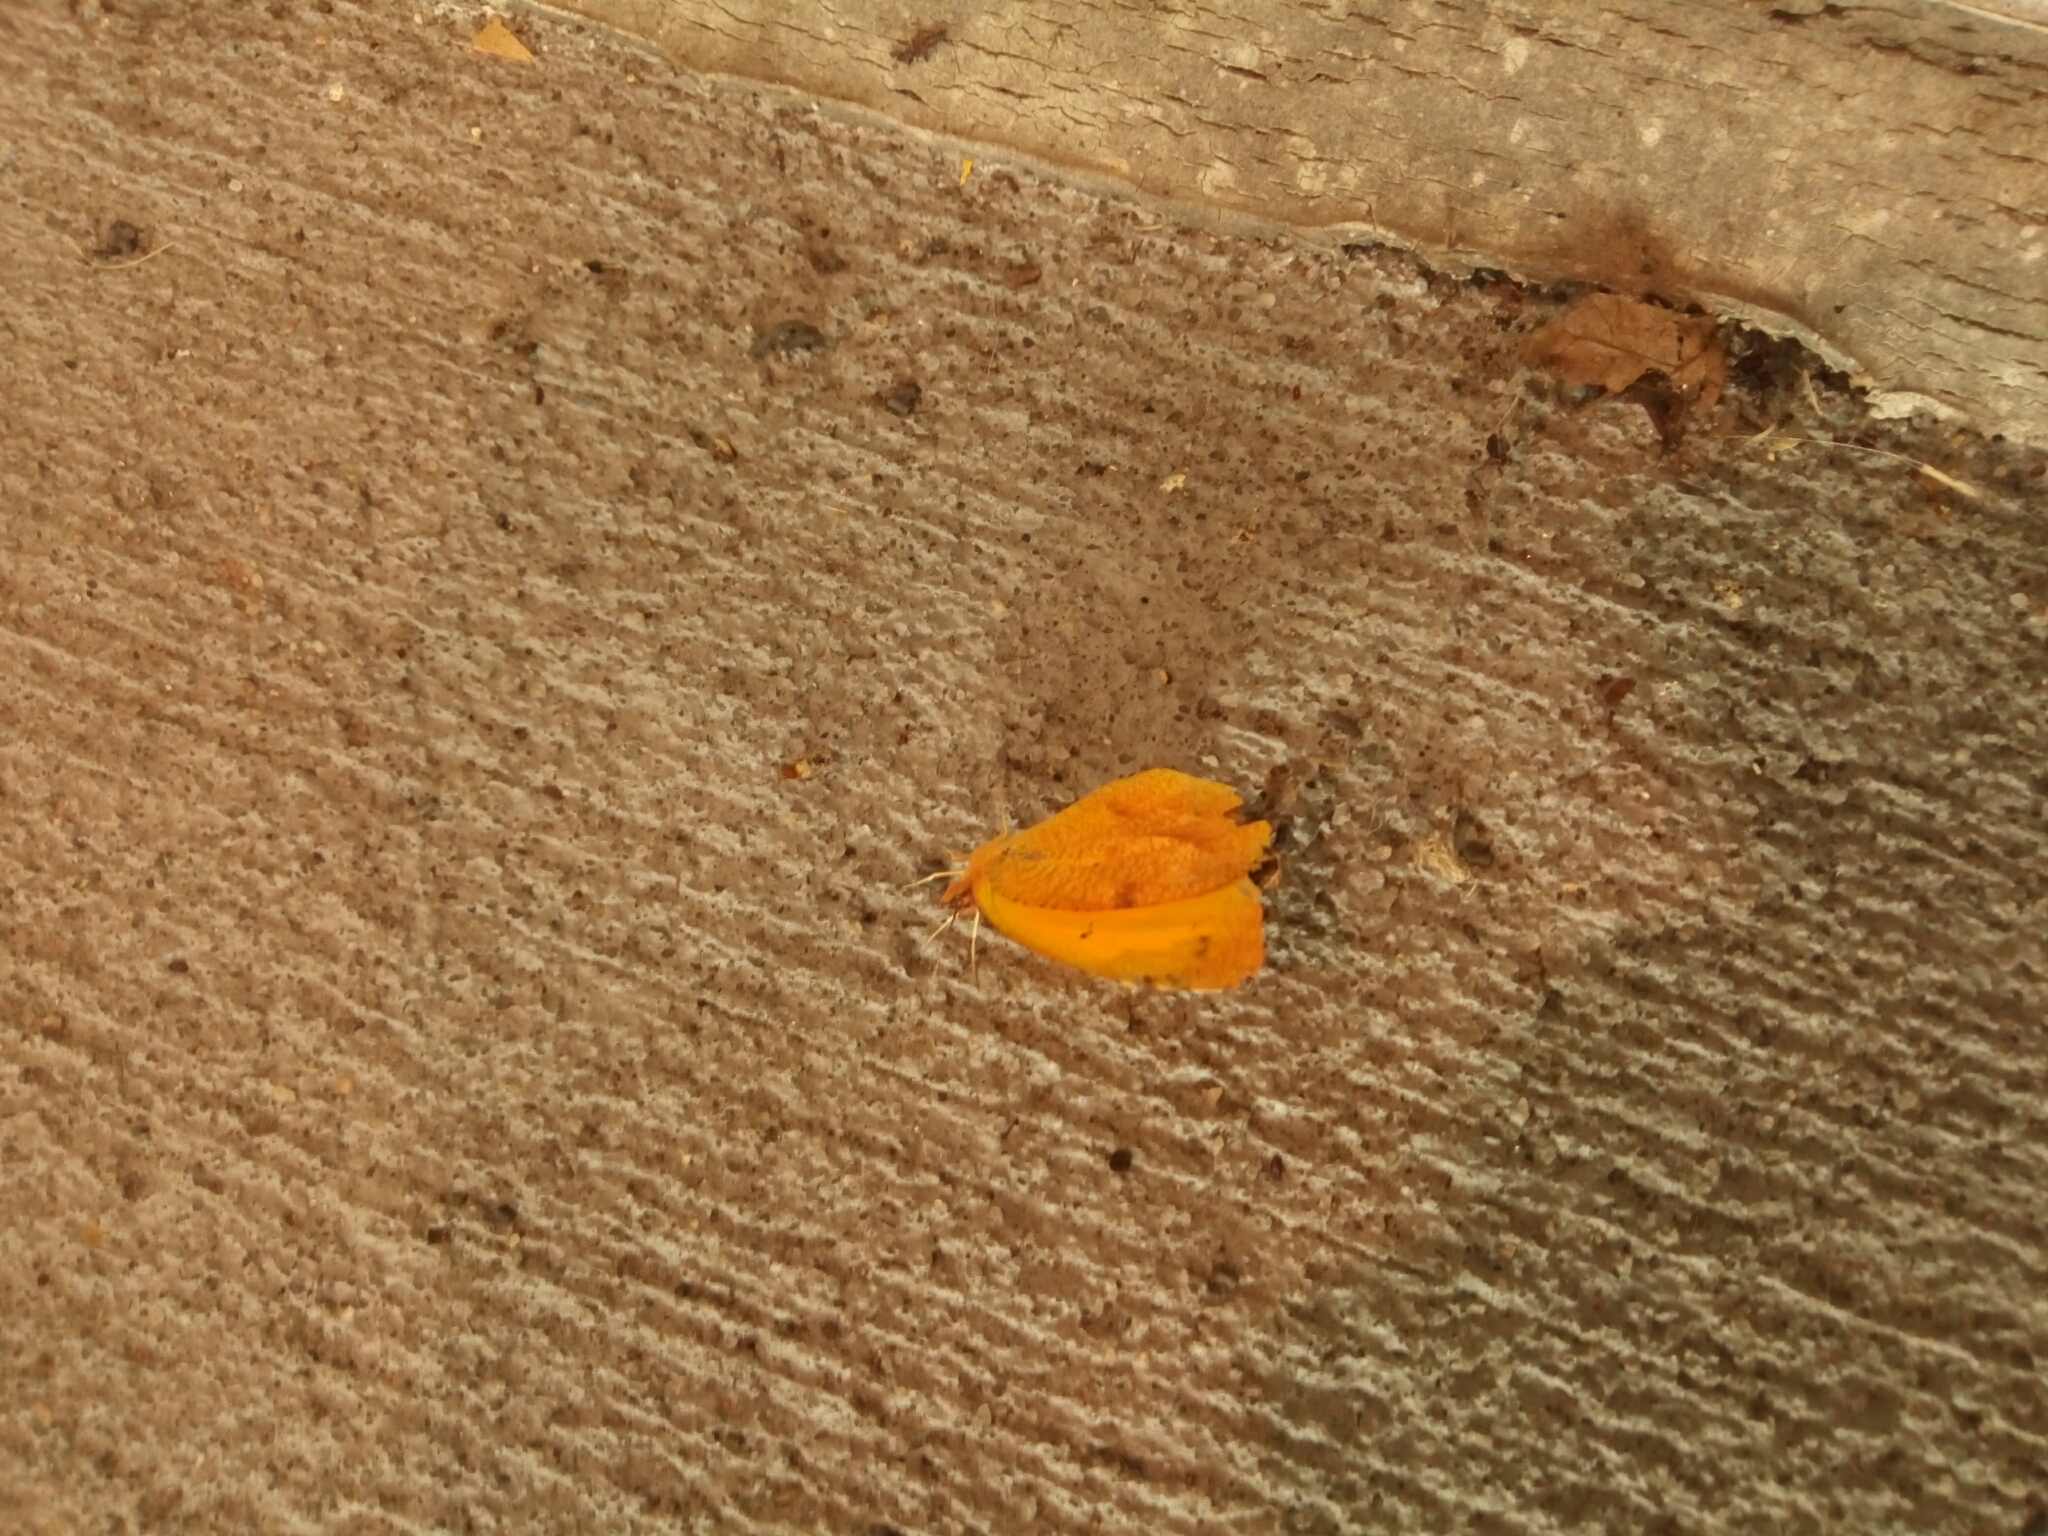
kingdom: Animalia
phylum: Arthropoda
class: Insecta
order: Lepidoptera
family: Pieridae
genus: Abaeis
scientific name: Abaeis nicippe
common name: Sleepy orange
